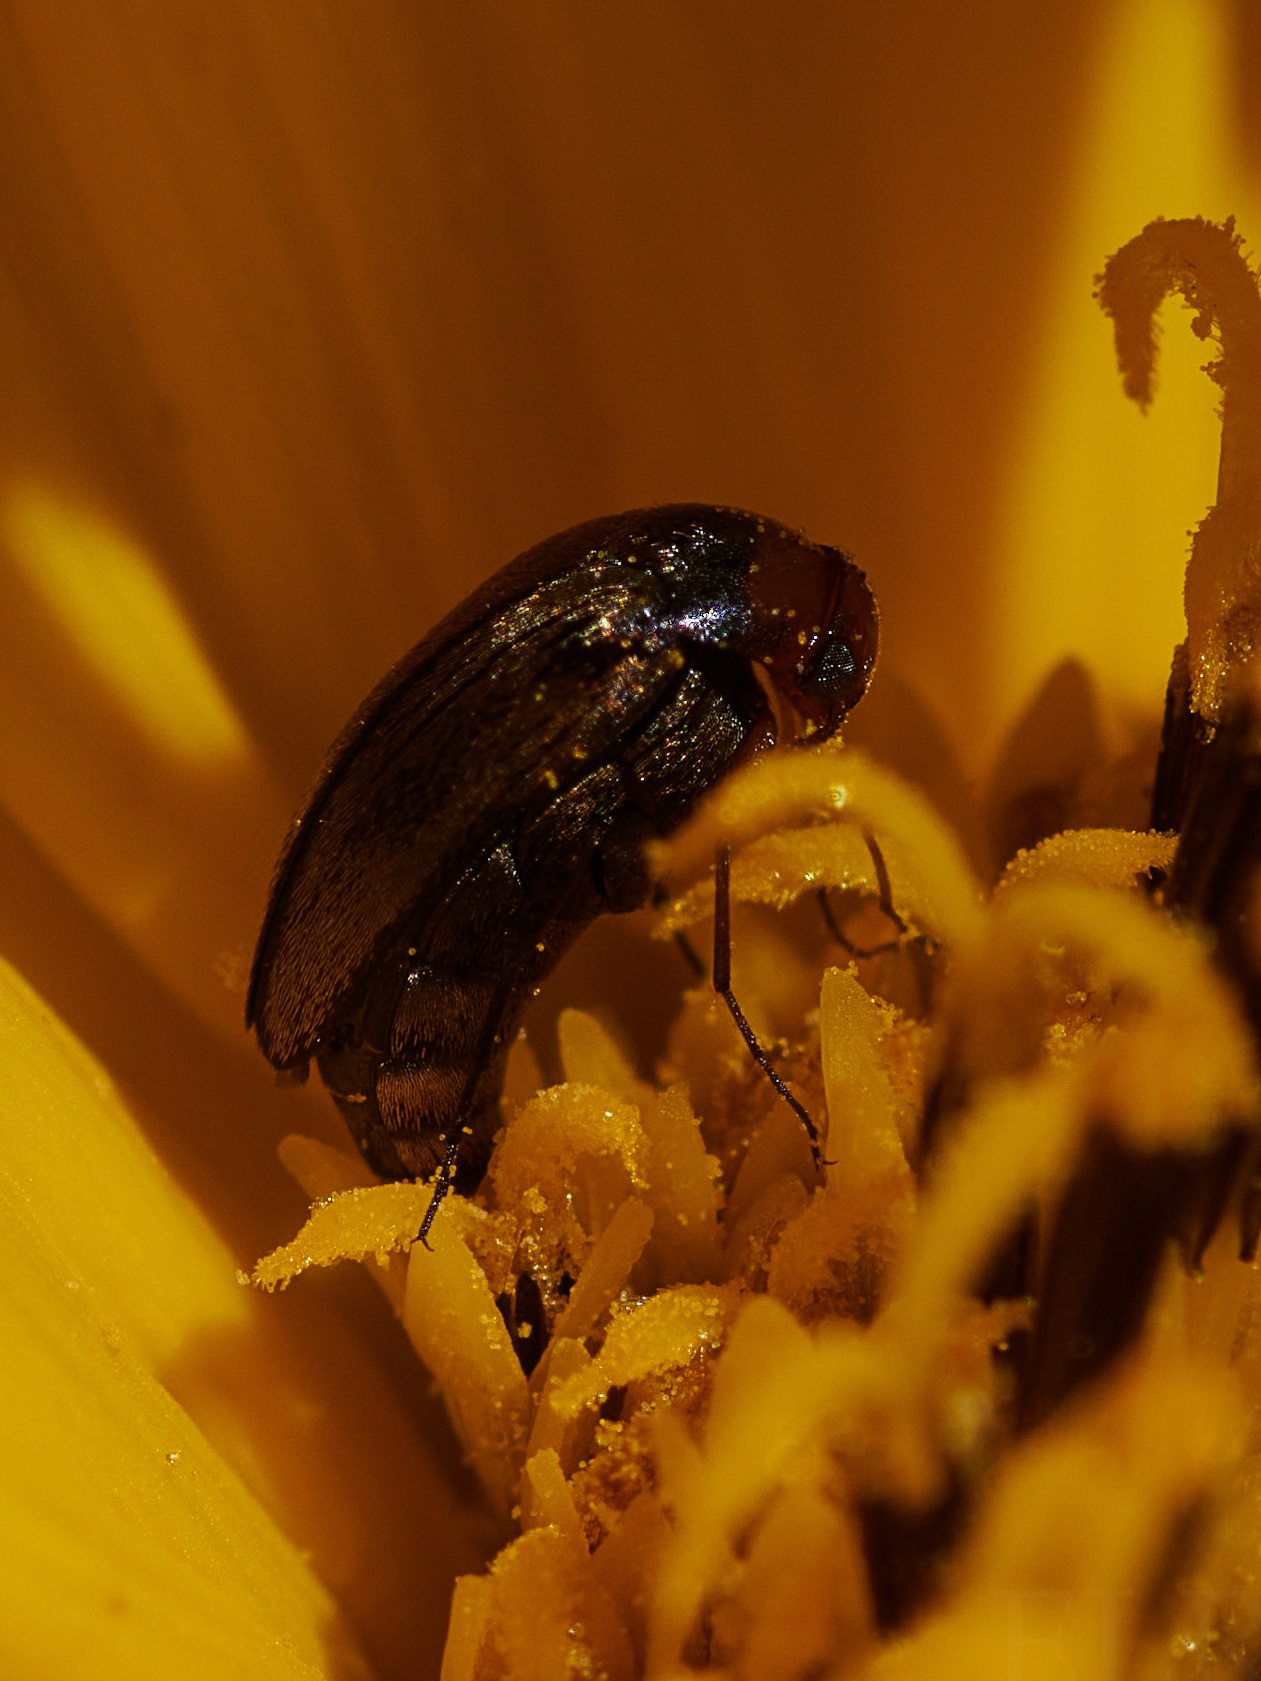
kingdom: Animalia
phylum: Arthropoda
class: Insecta
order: Coleoptera
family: Mordellidae
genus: Mordellistena
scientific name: Mordellistena divisa
